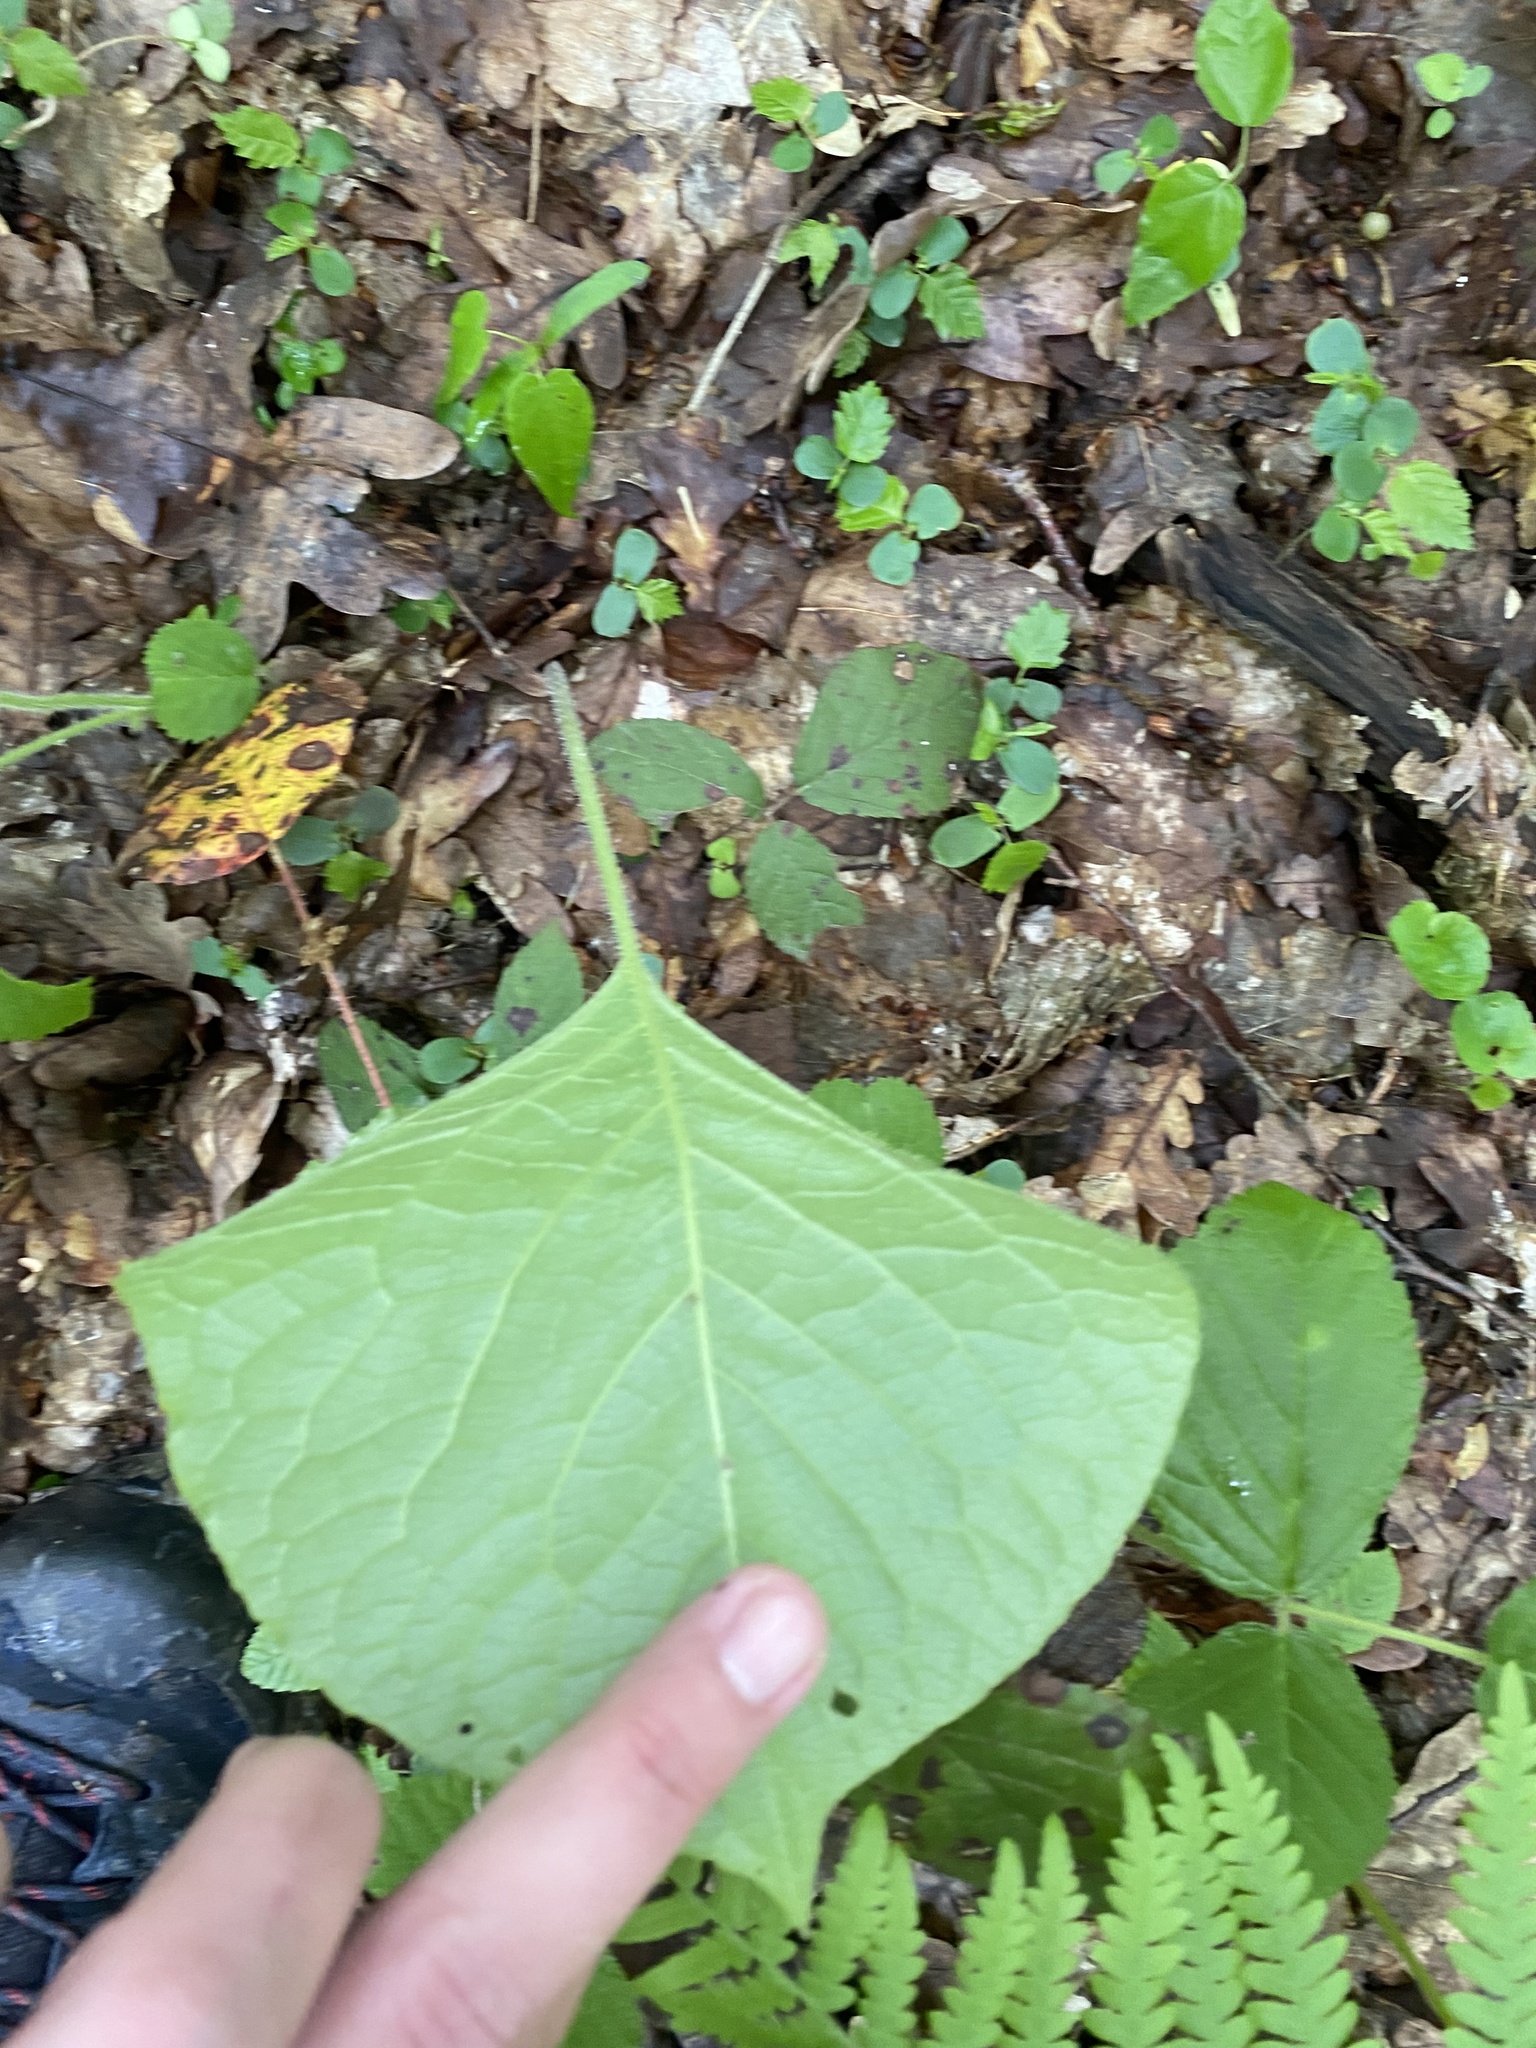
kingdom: Plantae
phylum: Tracheophyta
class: Magnoliopsida
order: Boraginales
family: Boraginaceae
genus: Trachystemon
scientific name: Trachystemon orientale
